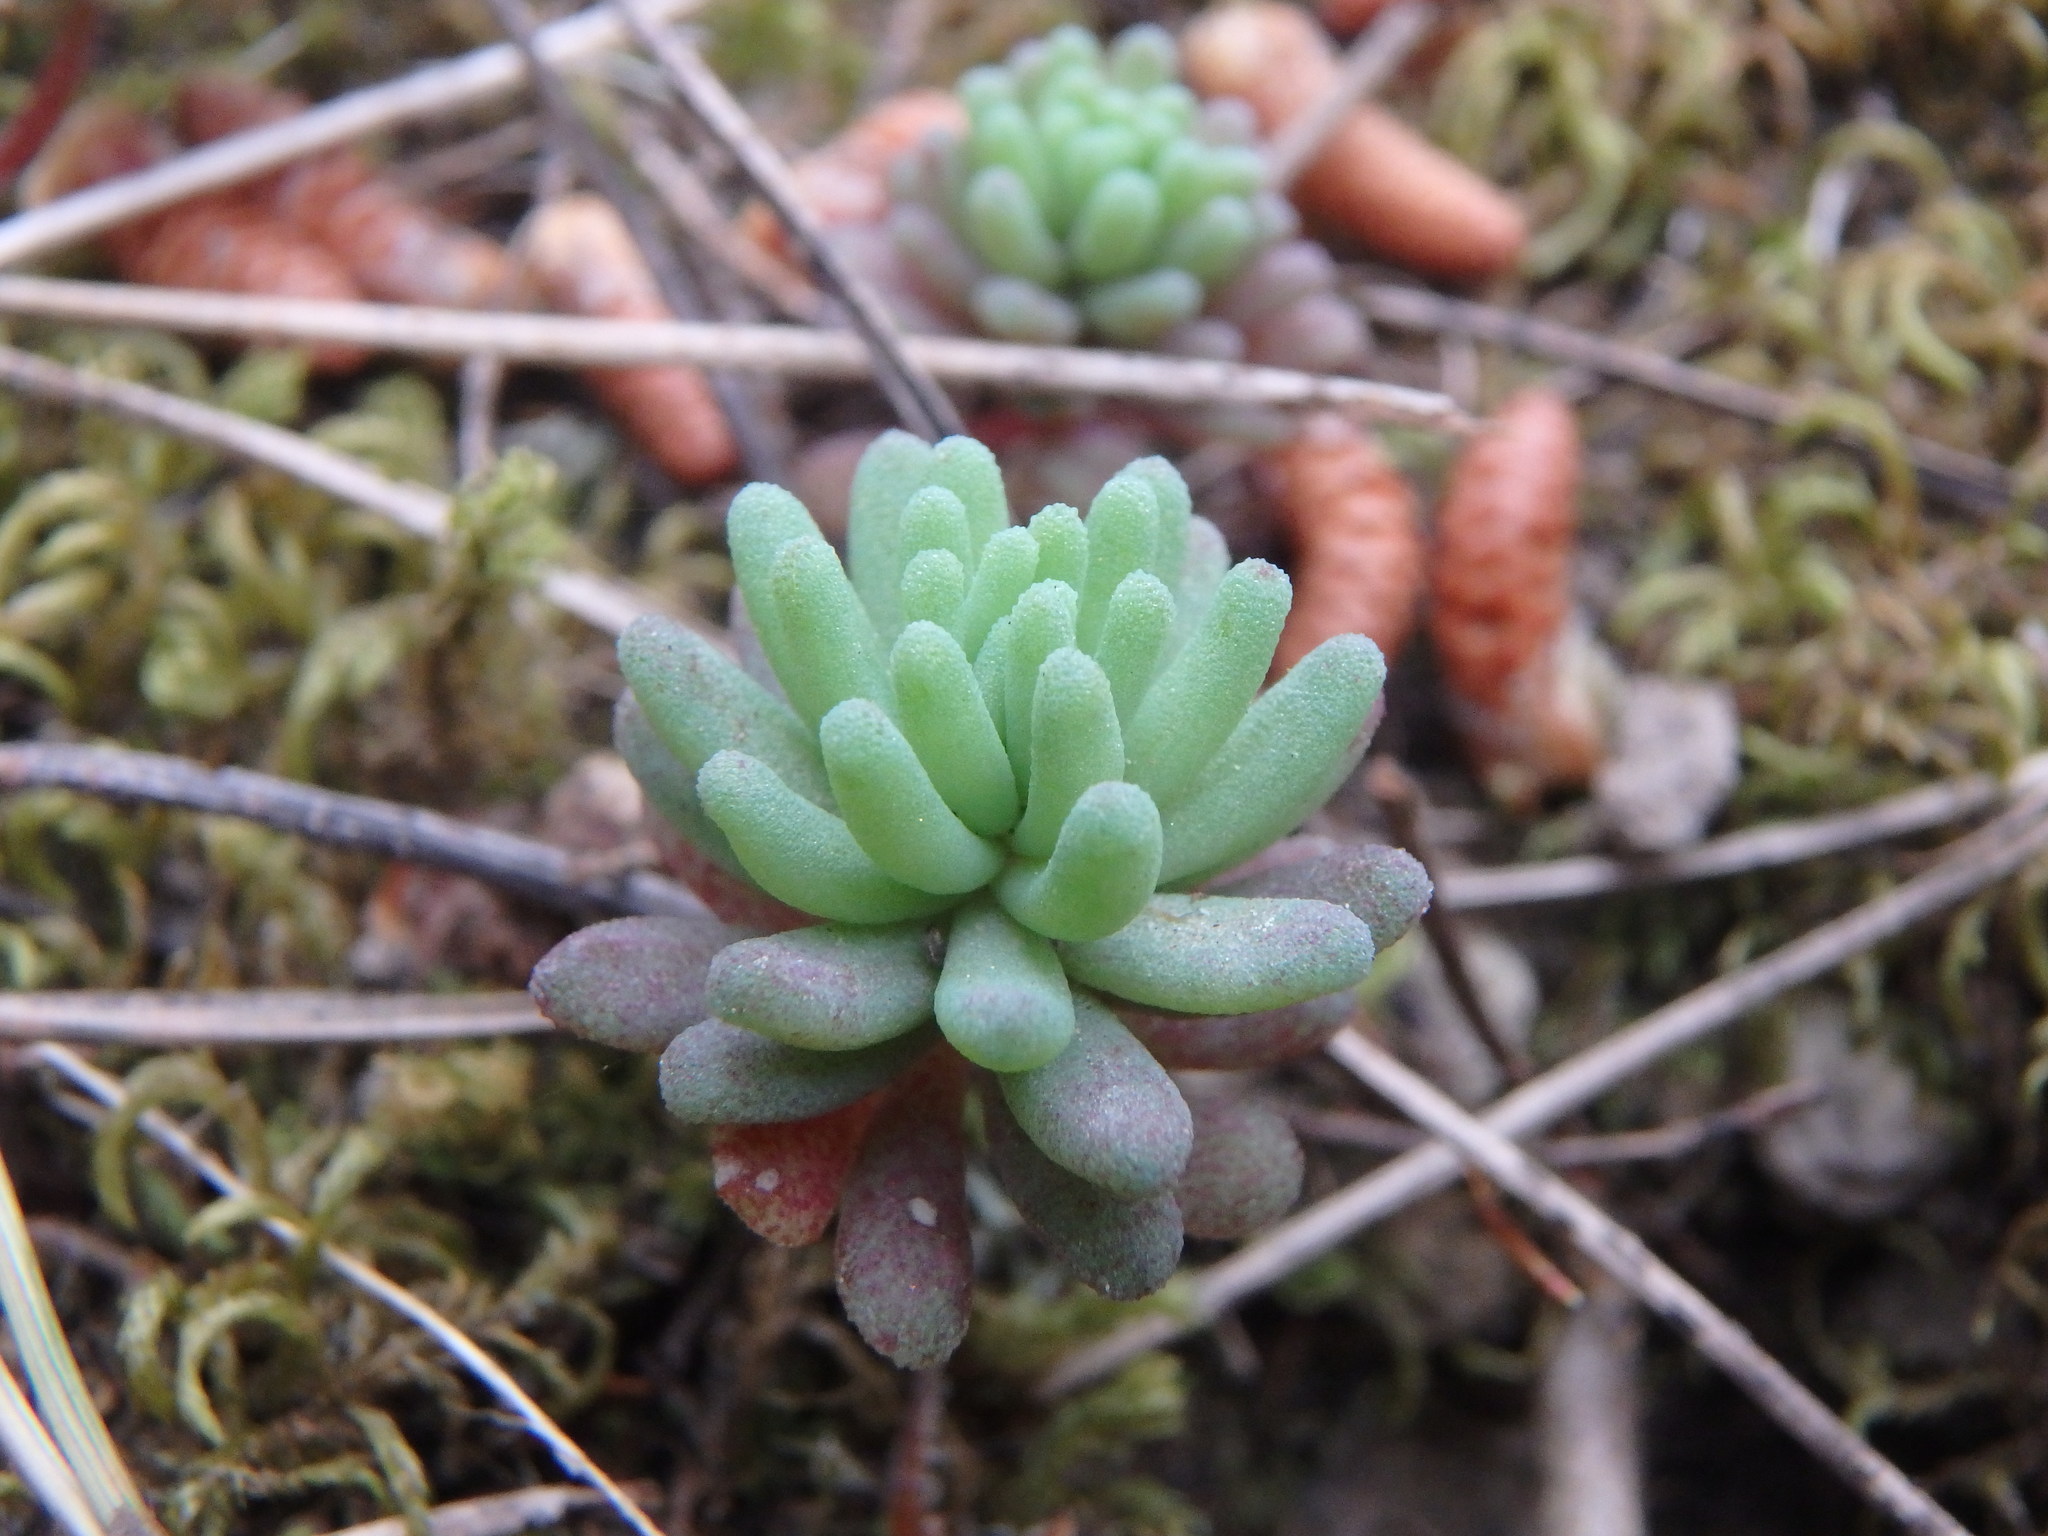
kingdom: Plantae
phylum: Tracheophyta
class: Magnoliopsida
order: Saxifragales
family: Crassulaceae
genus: Sedum
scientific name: Sedum rubens
